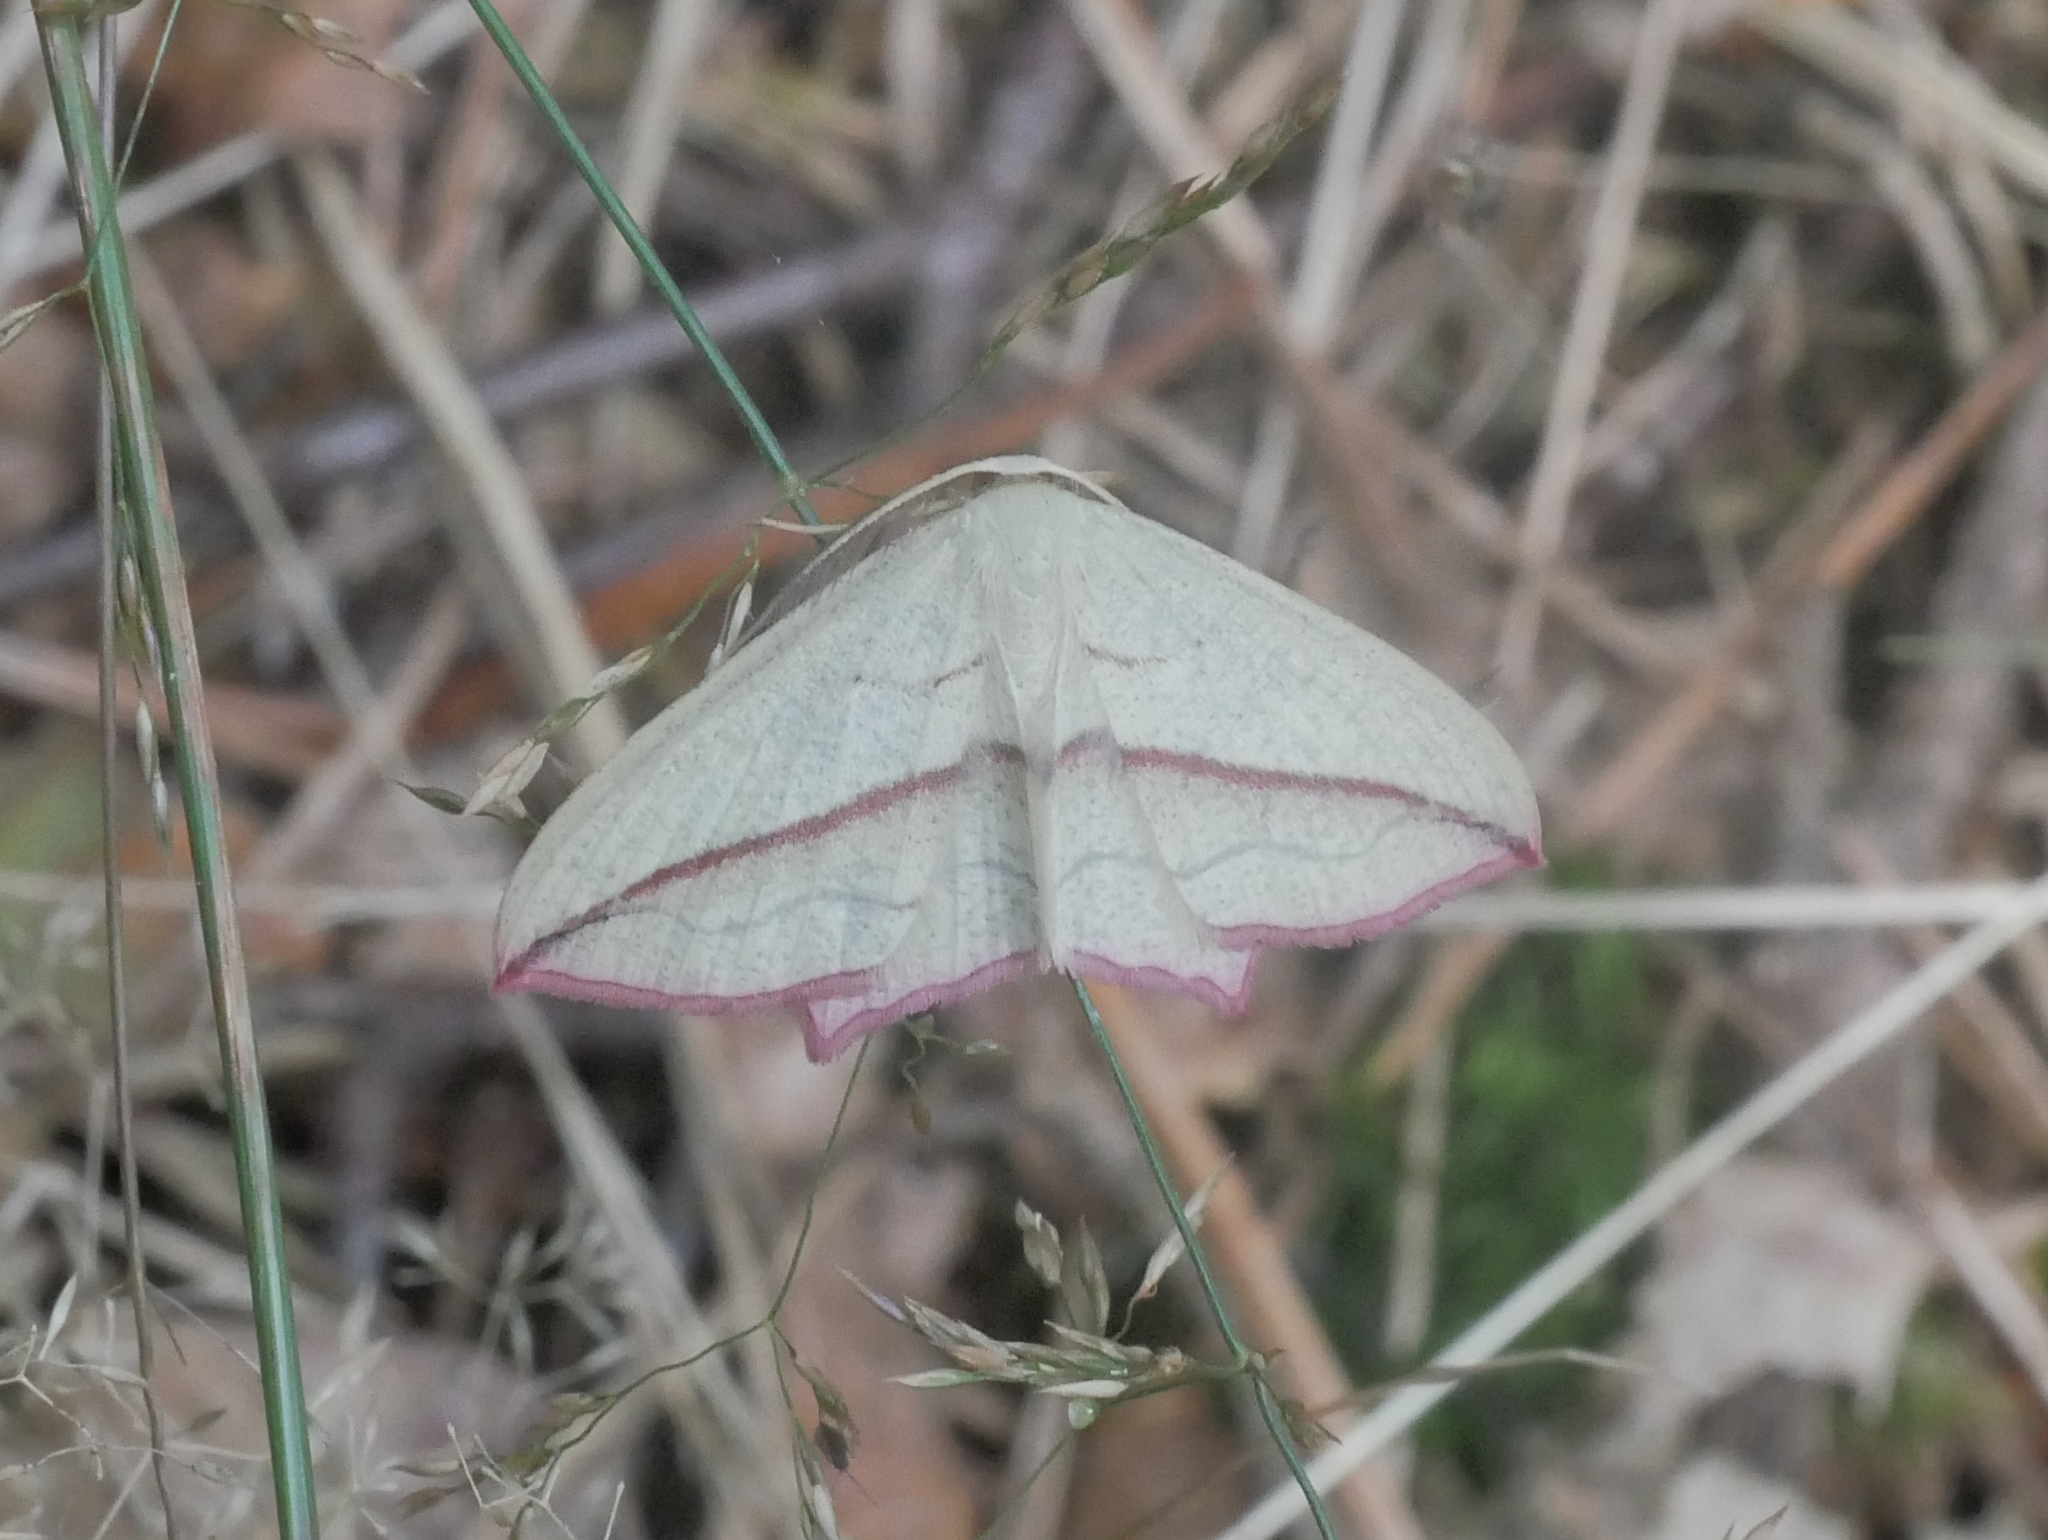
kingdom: Animalia
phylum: Arthropoda
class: Insecta
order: Lepidoptera
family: Geometridae
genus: Timandra
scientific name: Timandra comae
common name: Blood-vein
